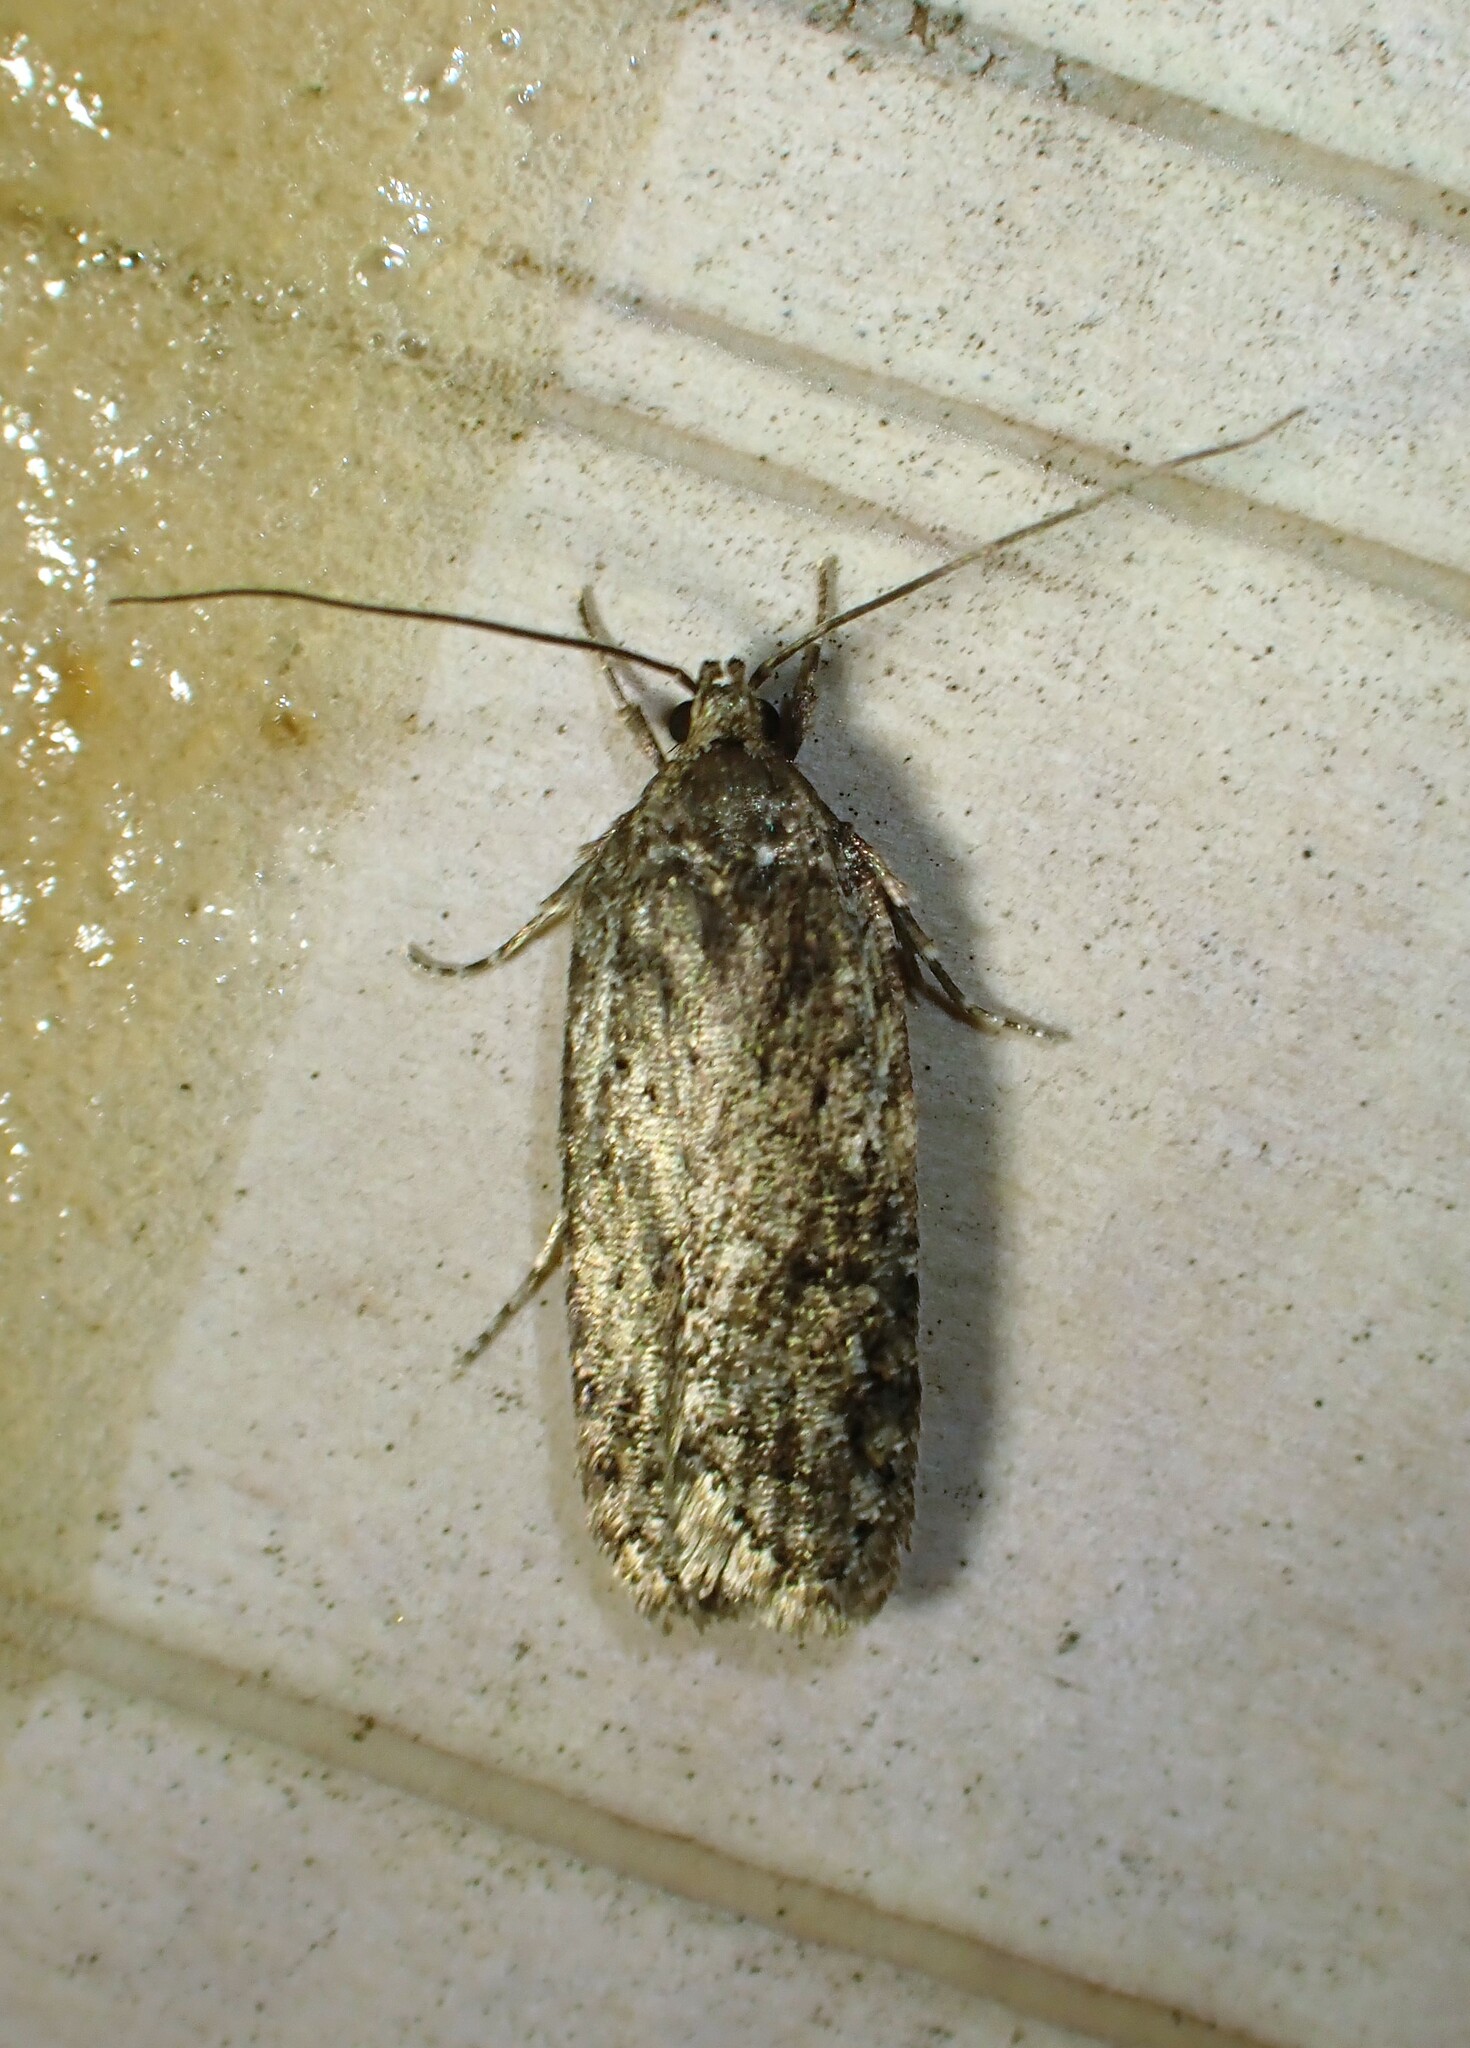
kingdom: Animalia
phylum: Arthropoda
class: Insecta
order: Lepidoptera
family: Depressariidae
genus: Exaeretia
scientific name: Exaeretia ciniflonella
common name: Scotch flat-body
